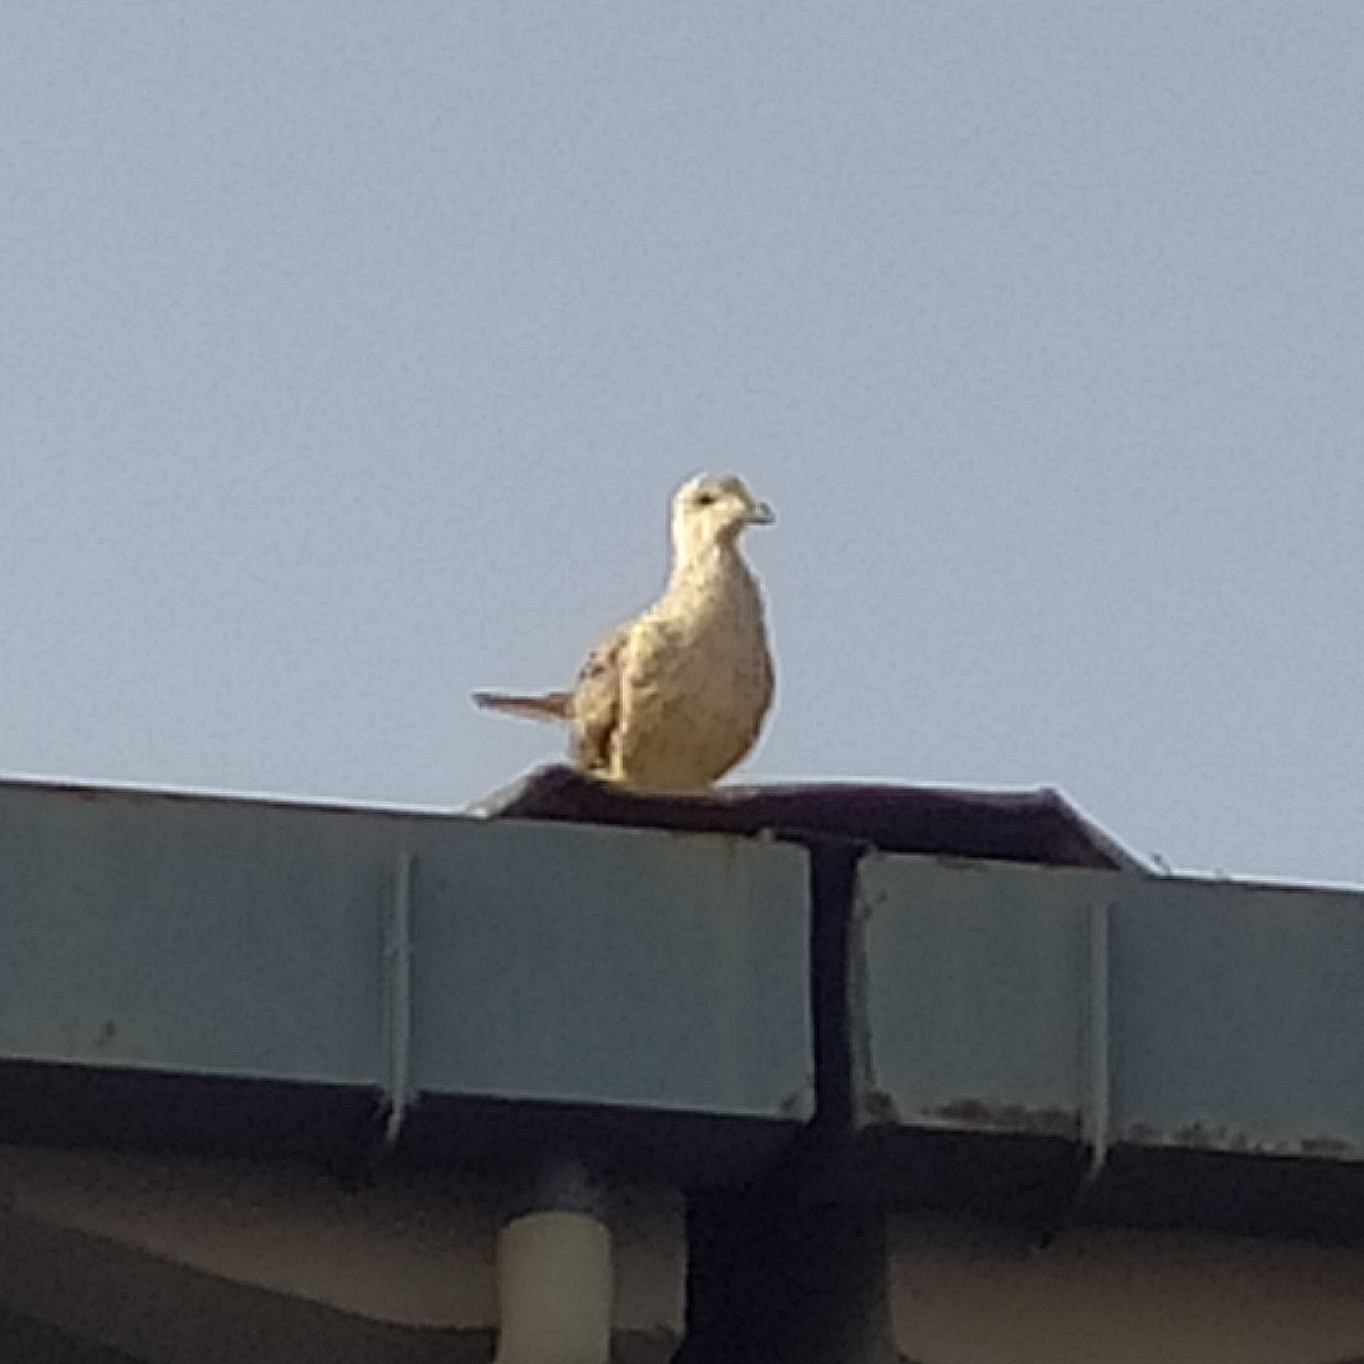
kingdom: Animalia
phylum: Chordata
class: Aves
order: Charadriiformes
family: Laridae
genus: Larus
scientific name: Larus michahellis
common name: Yellow-legged gull
